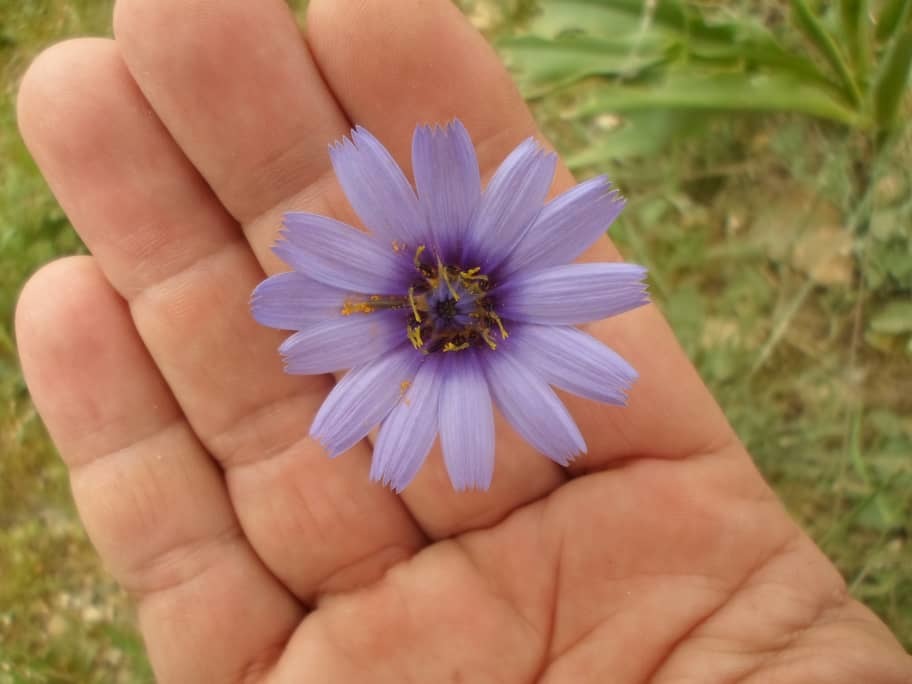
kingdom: Plantae
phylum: Tracheophyta
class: Magnoliopsida
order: Asterales
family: Asteraceae
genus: Catananche
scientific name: Catananche caerulea
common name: Blue cupidone
